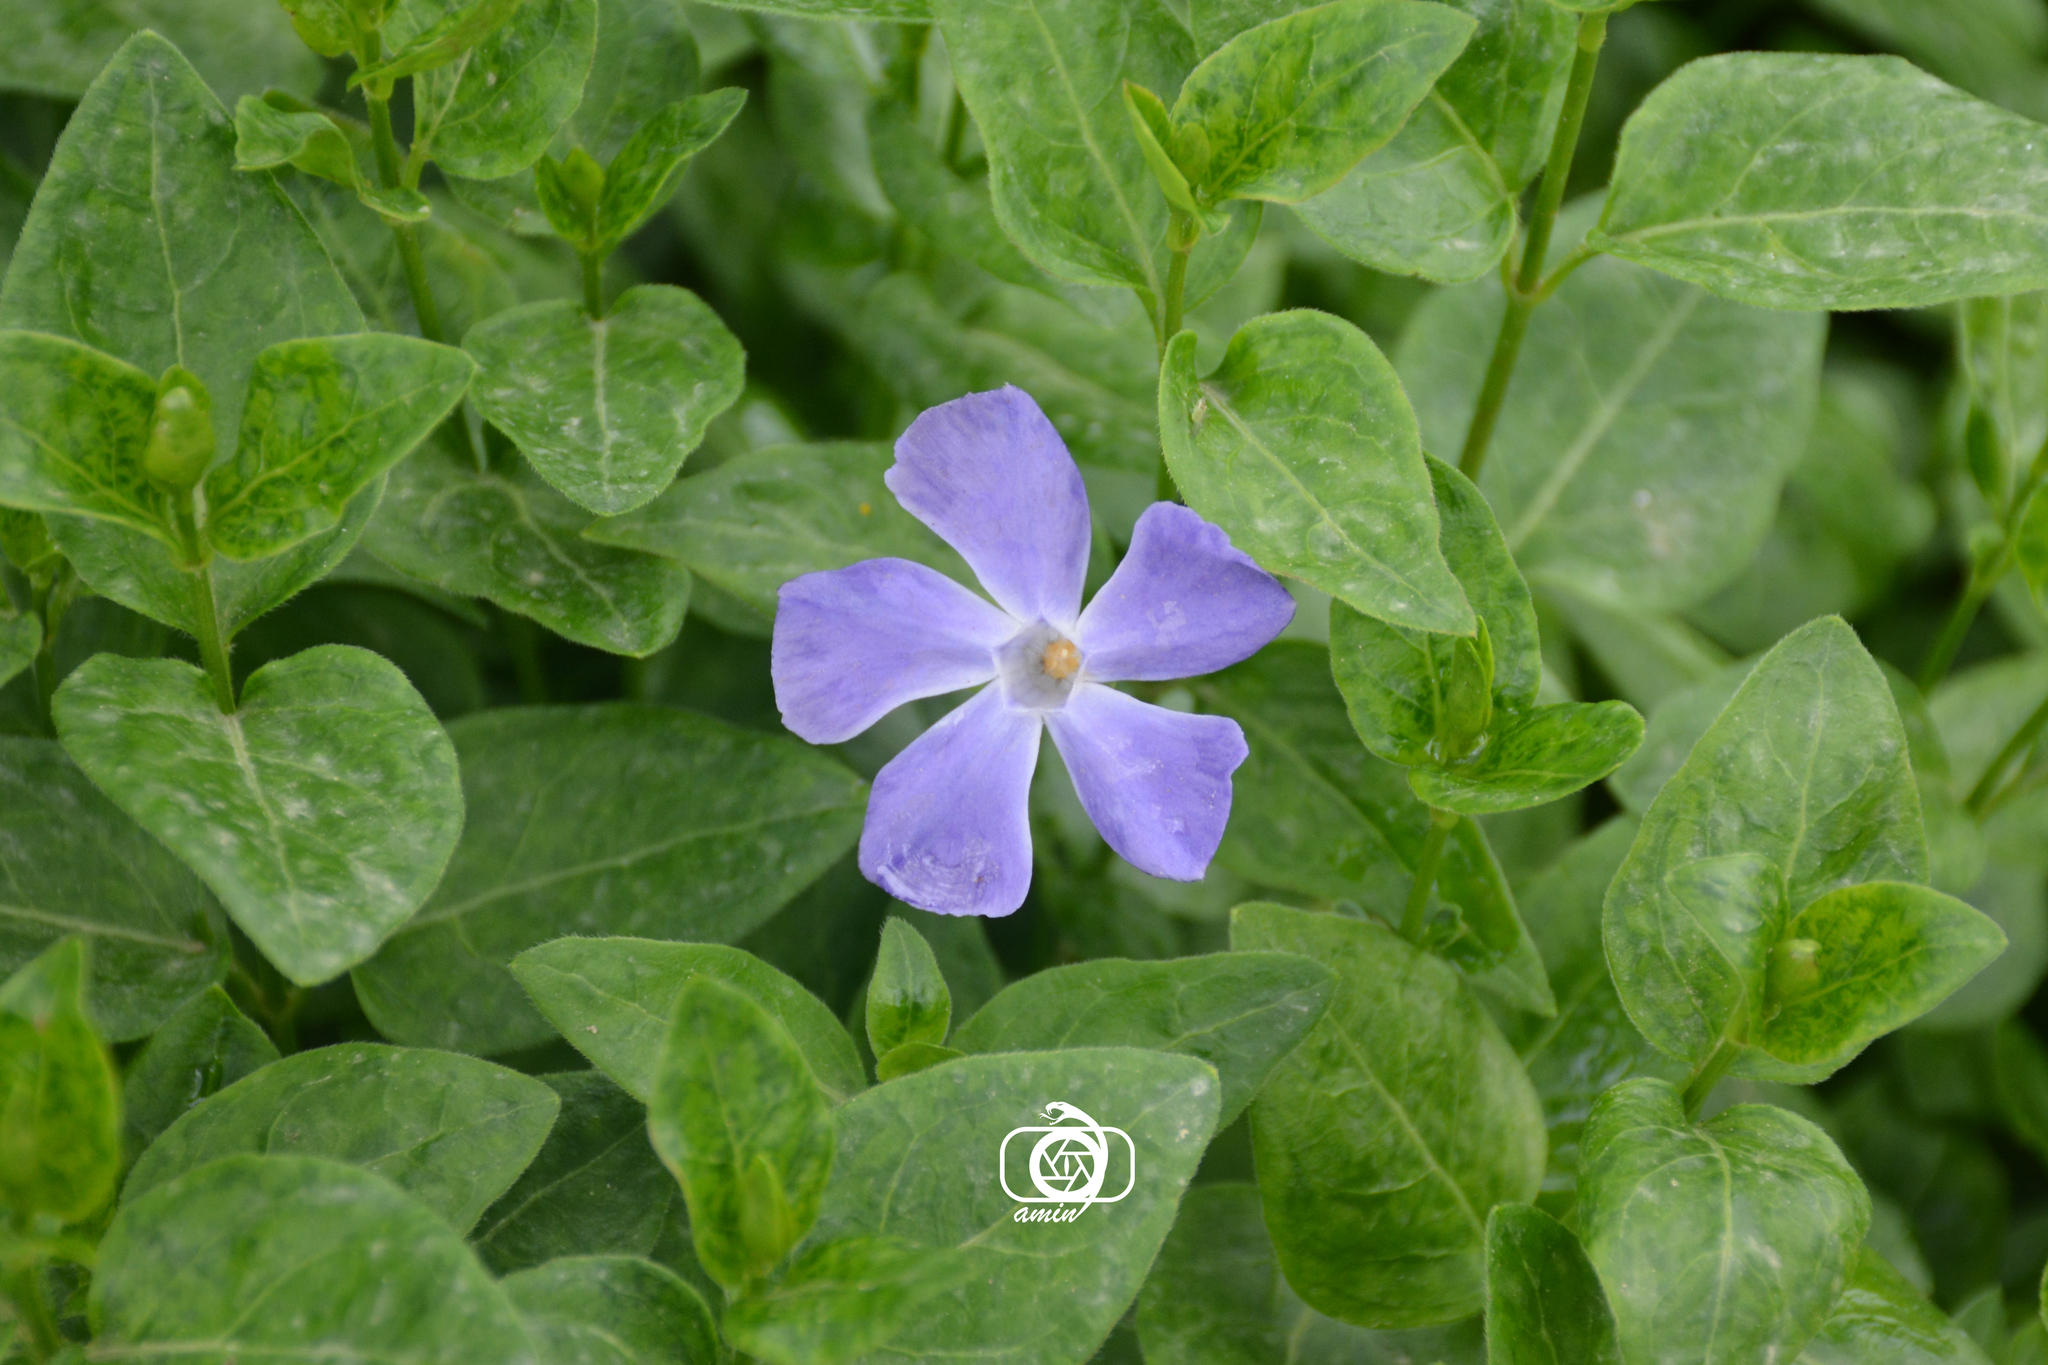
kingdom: Plantae
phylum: Tracheophyta
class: Magnoliopsida
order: Gentianales
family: Apocynaceae
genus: Vinca
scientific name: Vinca major
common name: Greater periwinkle
